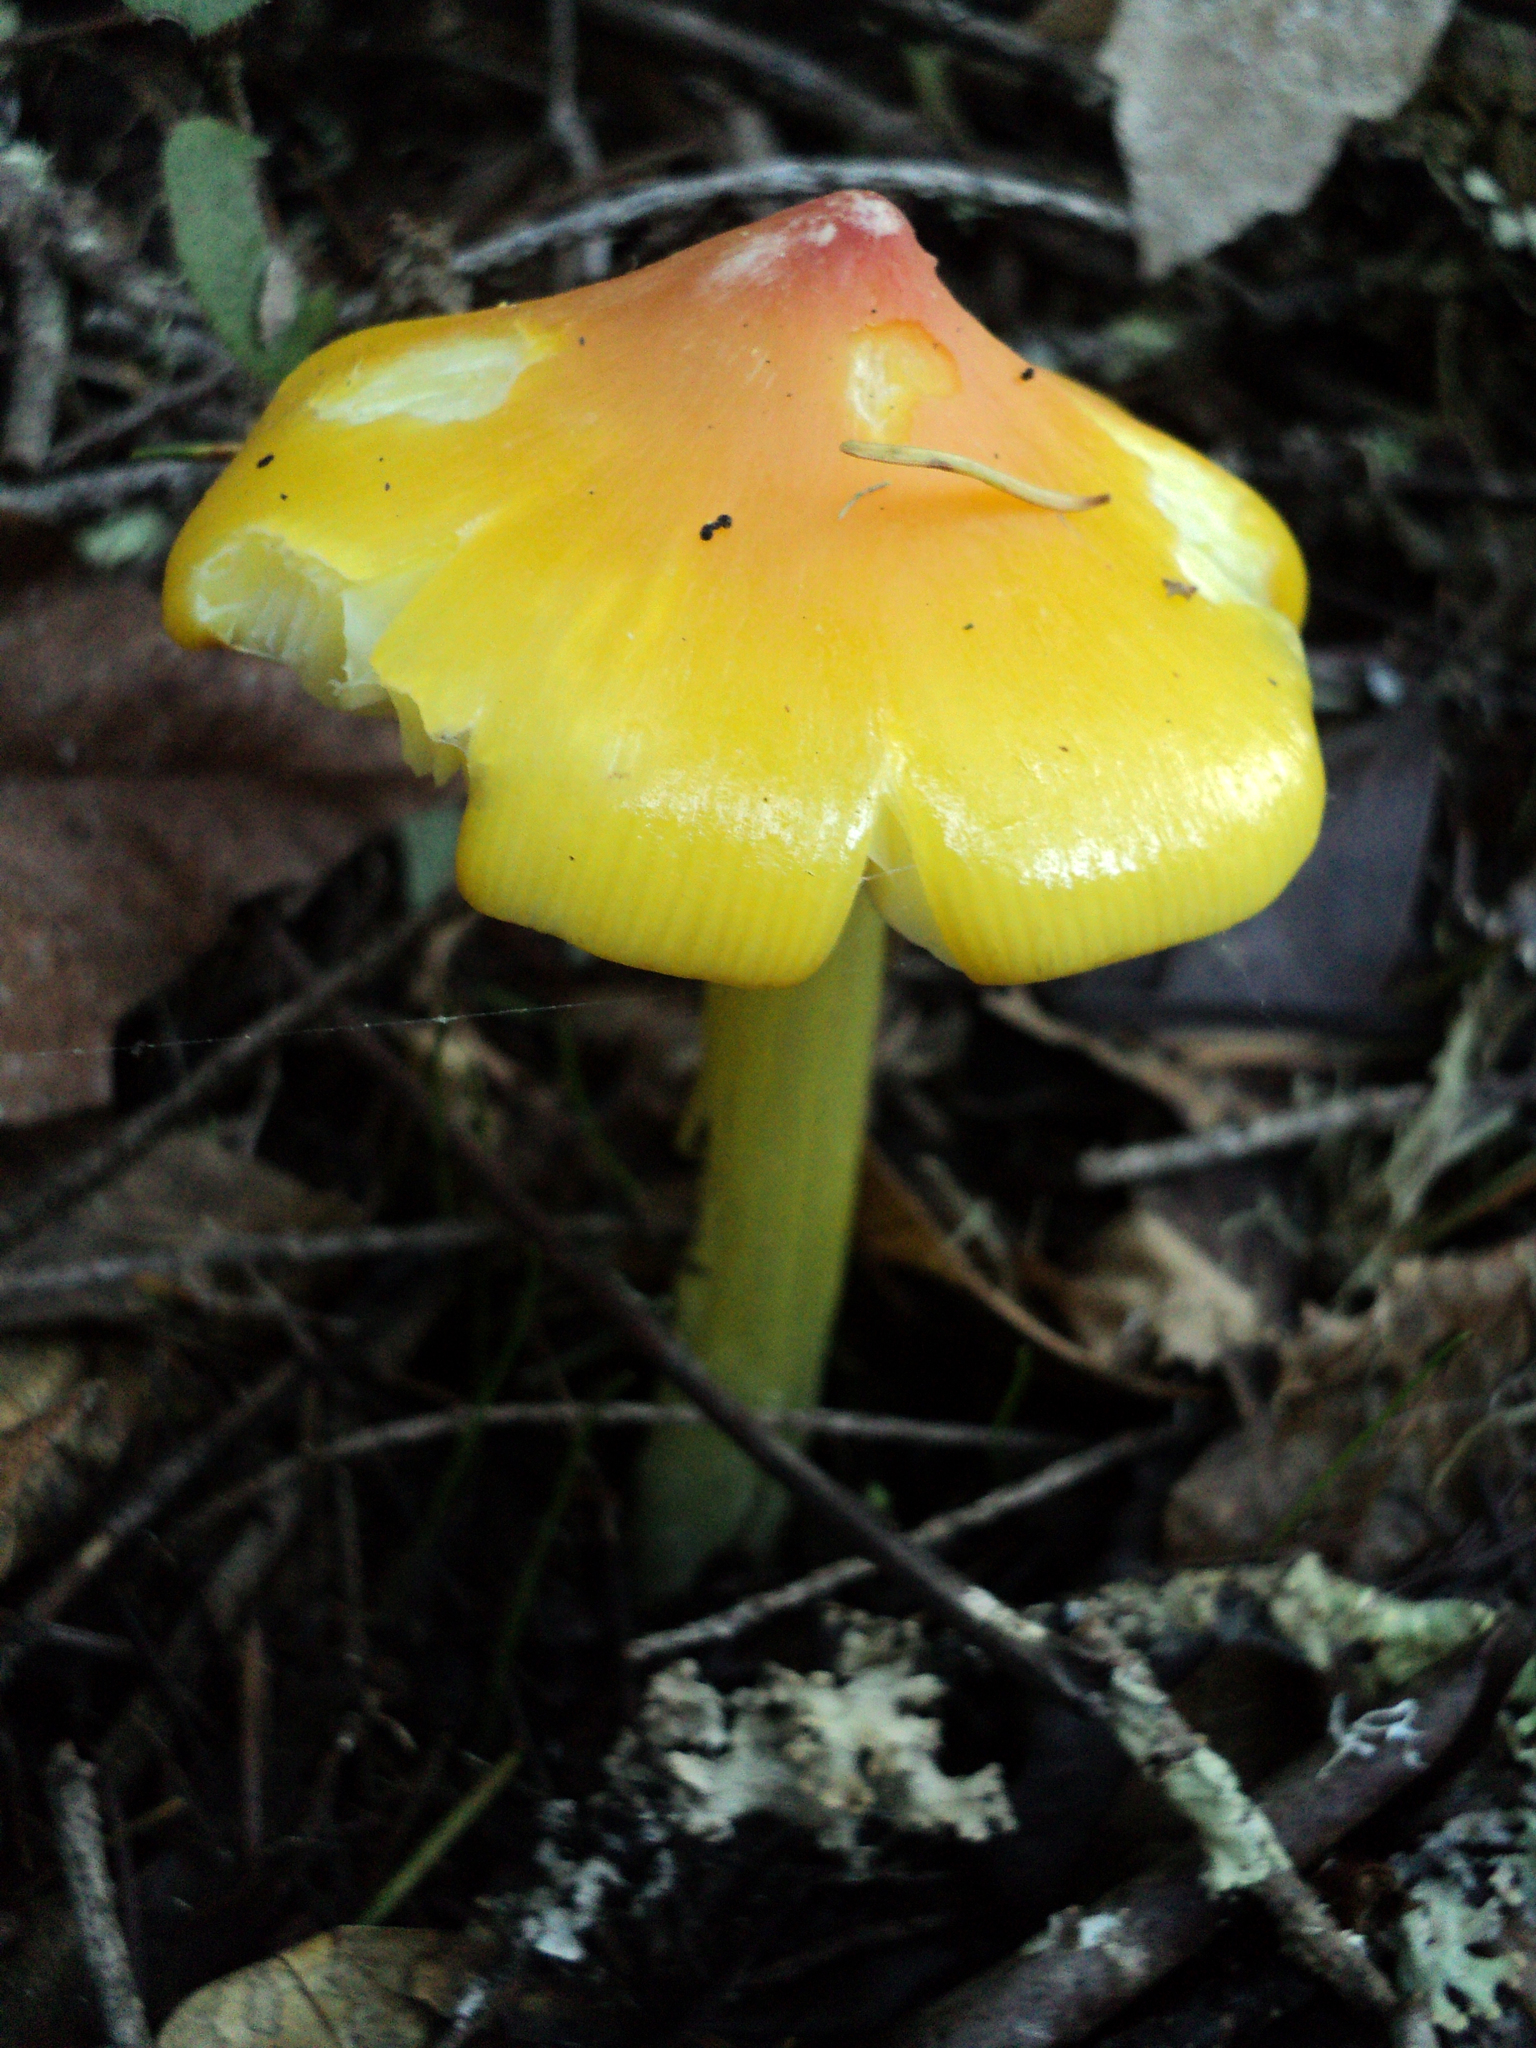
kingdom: Fungi
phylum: Basidiomycota
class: Agaricomycetes
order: Agaricales
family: Hygrophoraceae
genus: Hygrocybe
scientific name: Hygrocybe acutoconica
